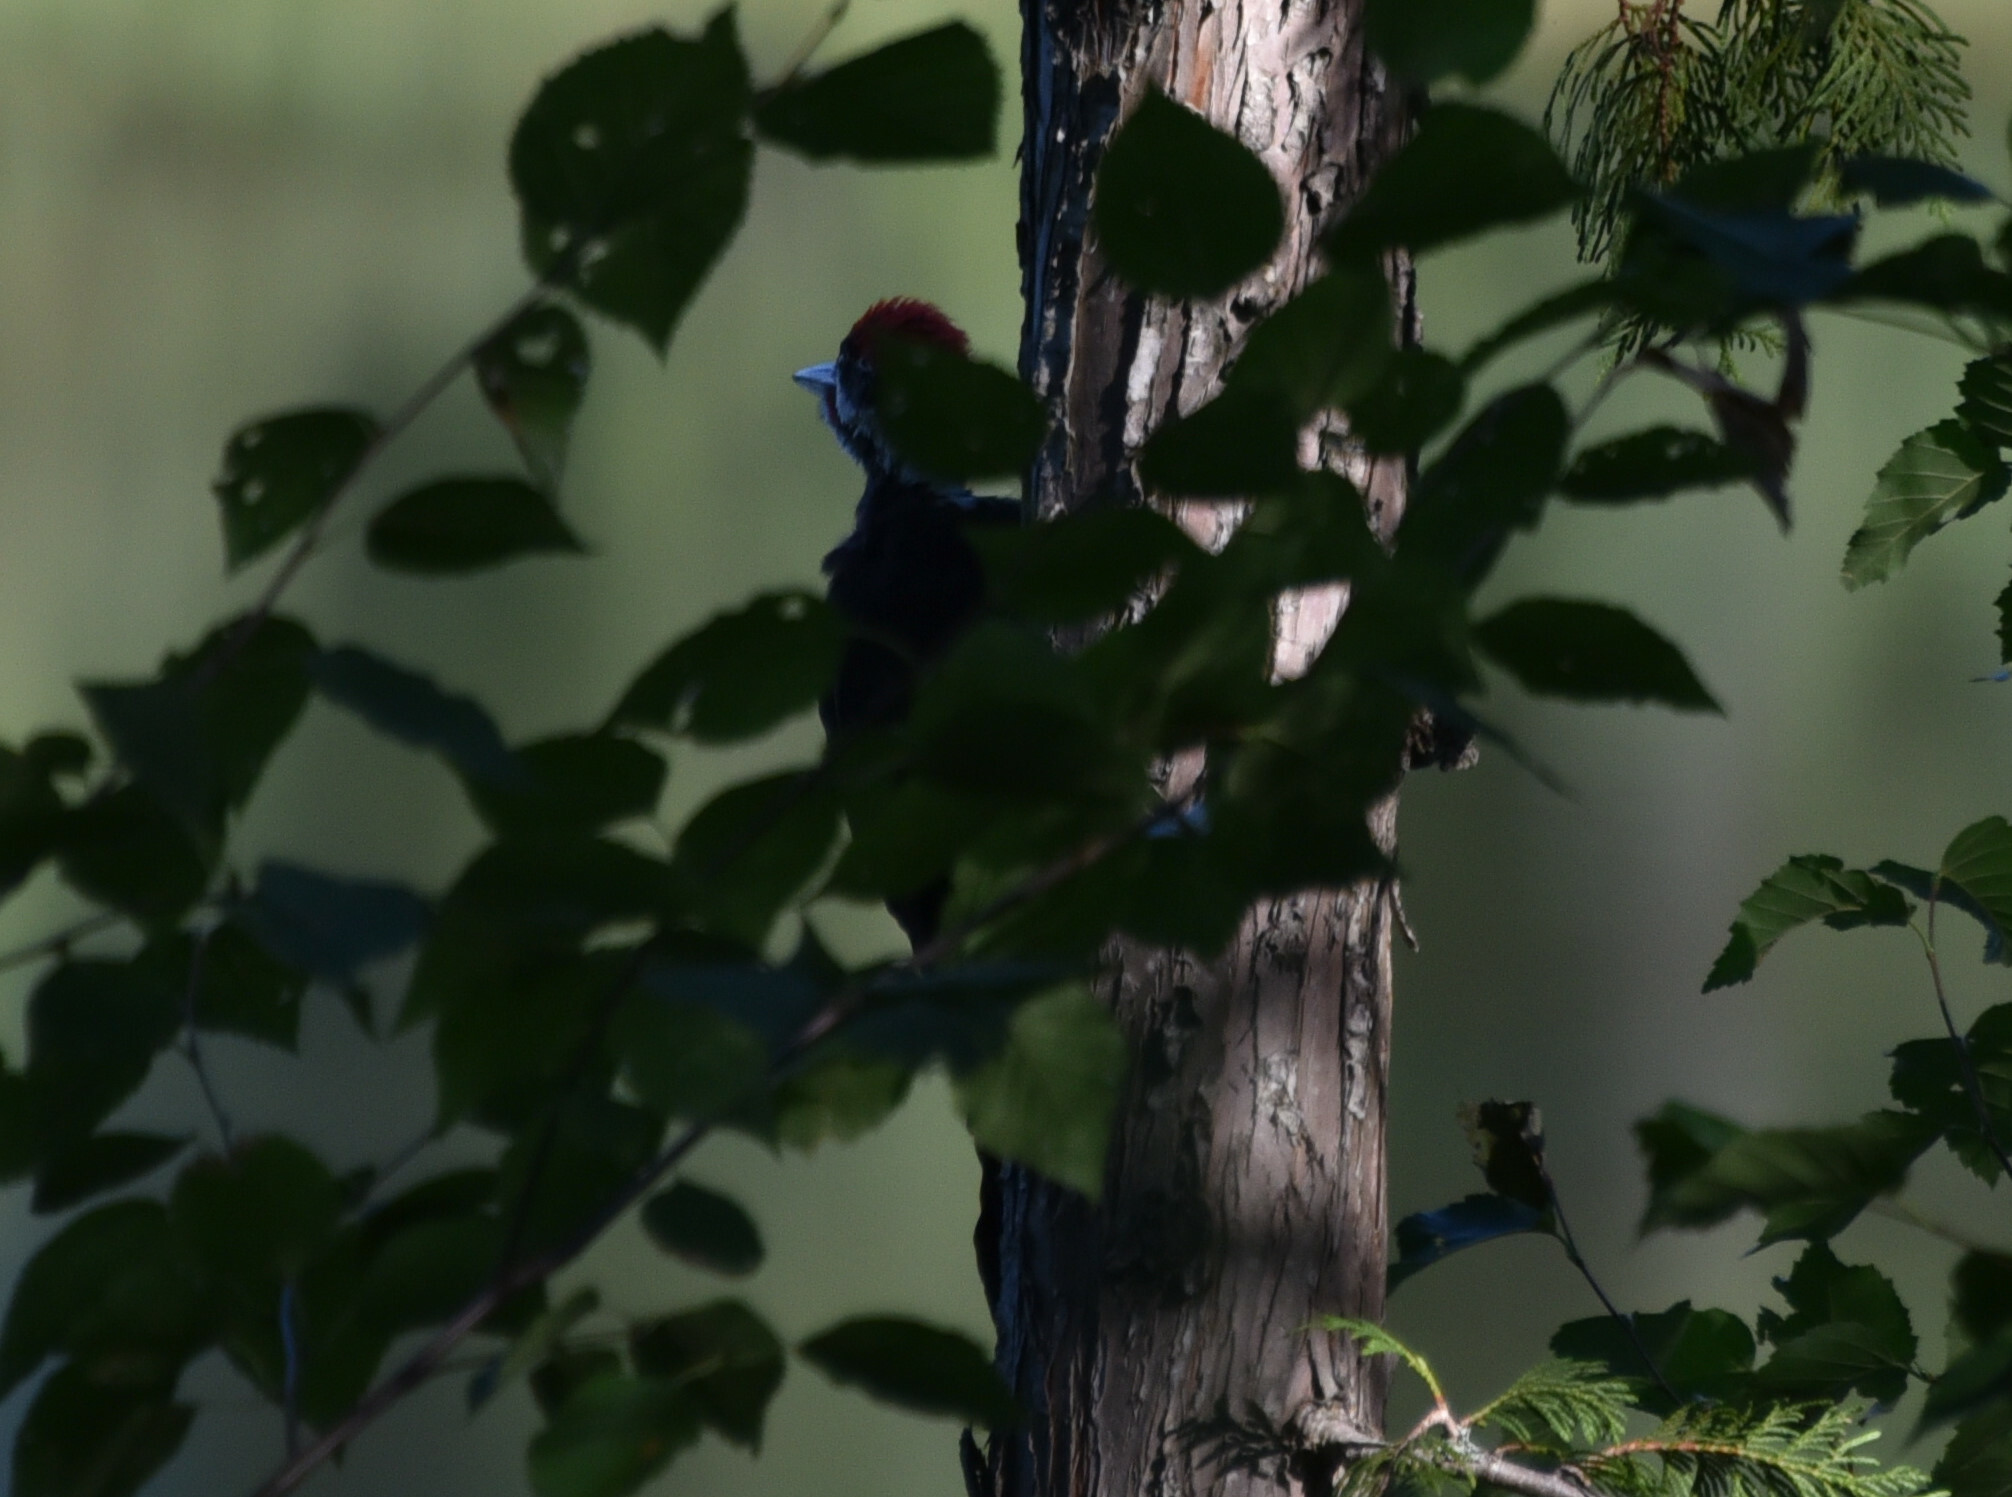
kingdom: Animalia
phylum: Chordata
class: Aves
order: Piciformes
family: Picidae
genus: Dryocopus
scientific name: Dryocopus pileatus
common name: Pileated woodpecker
